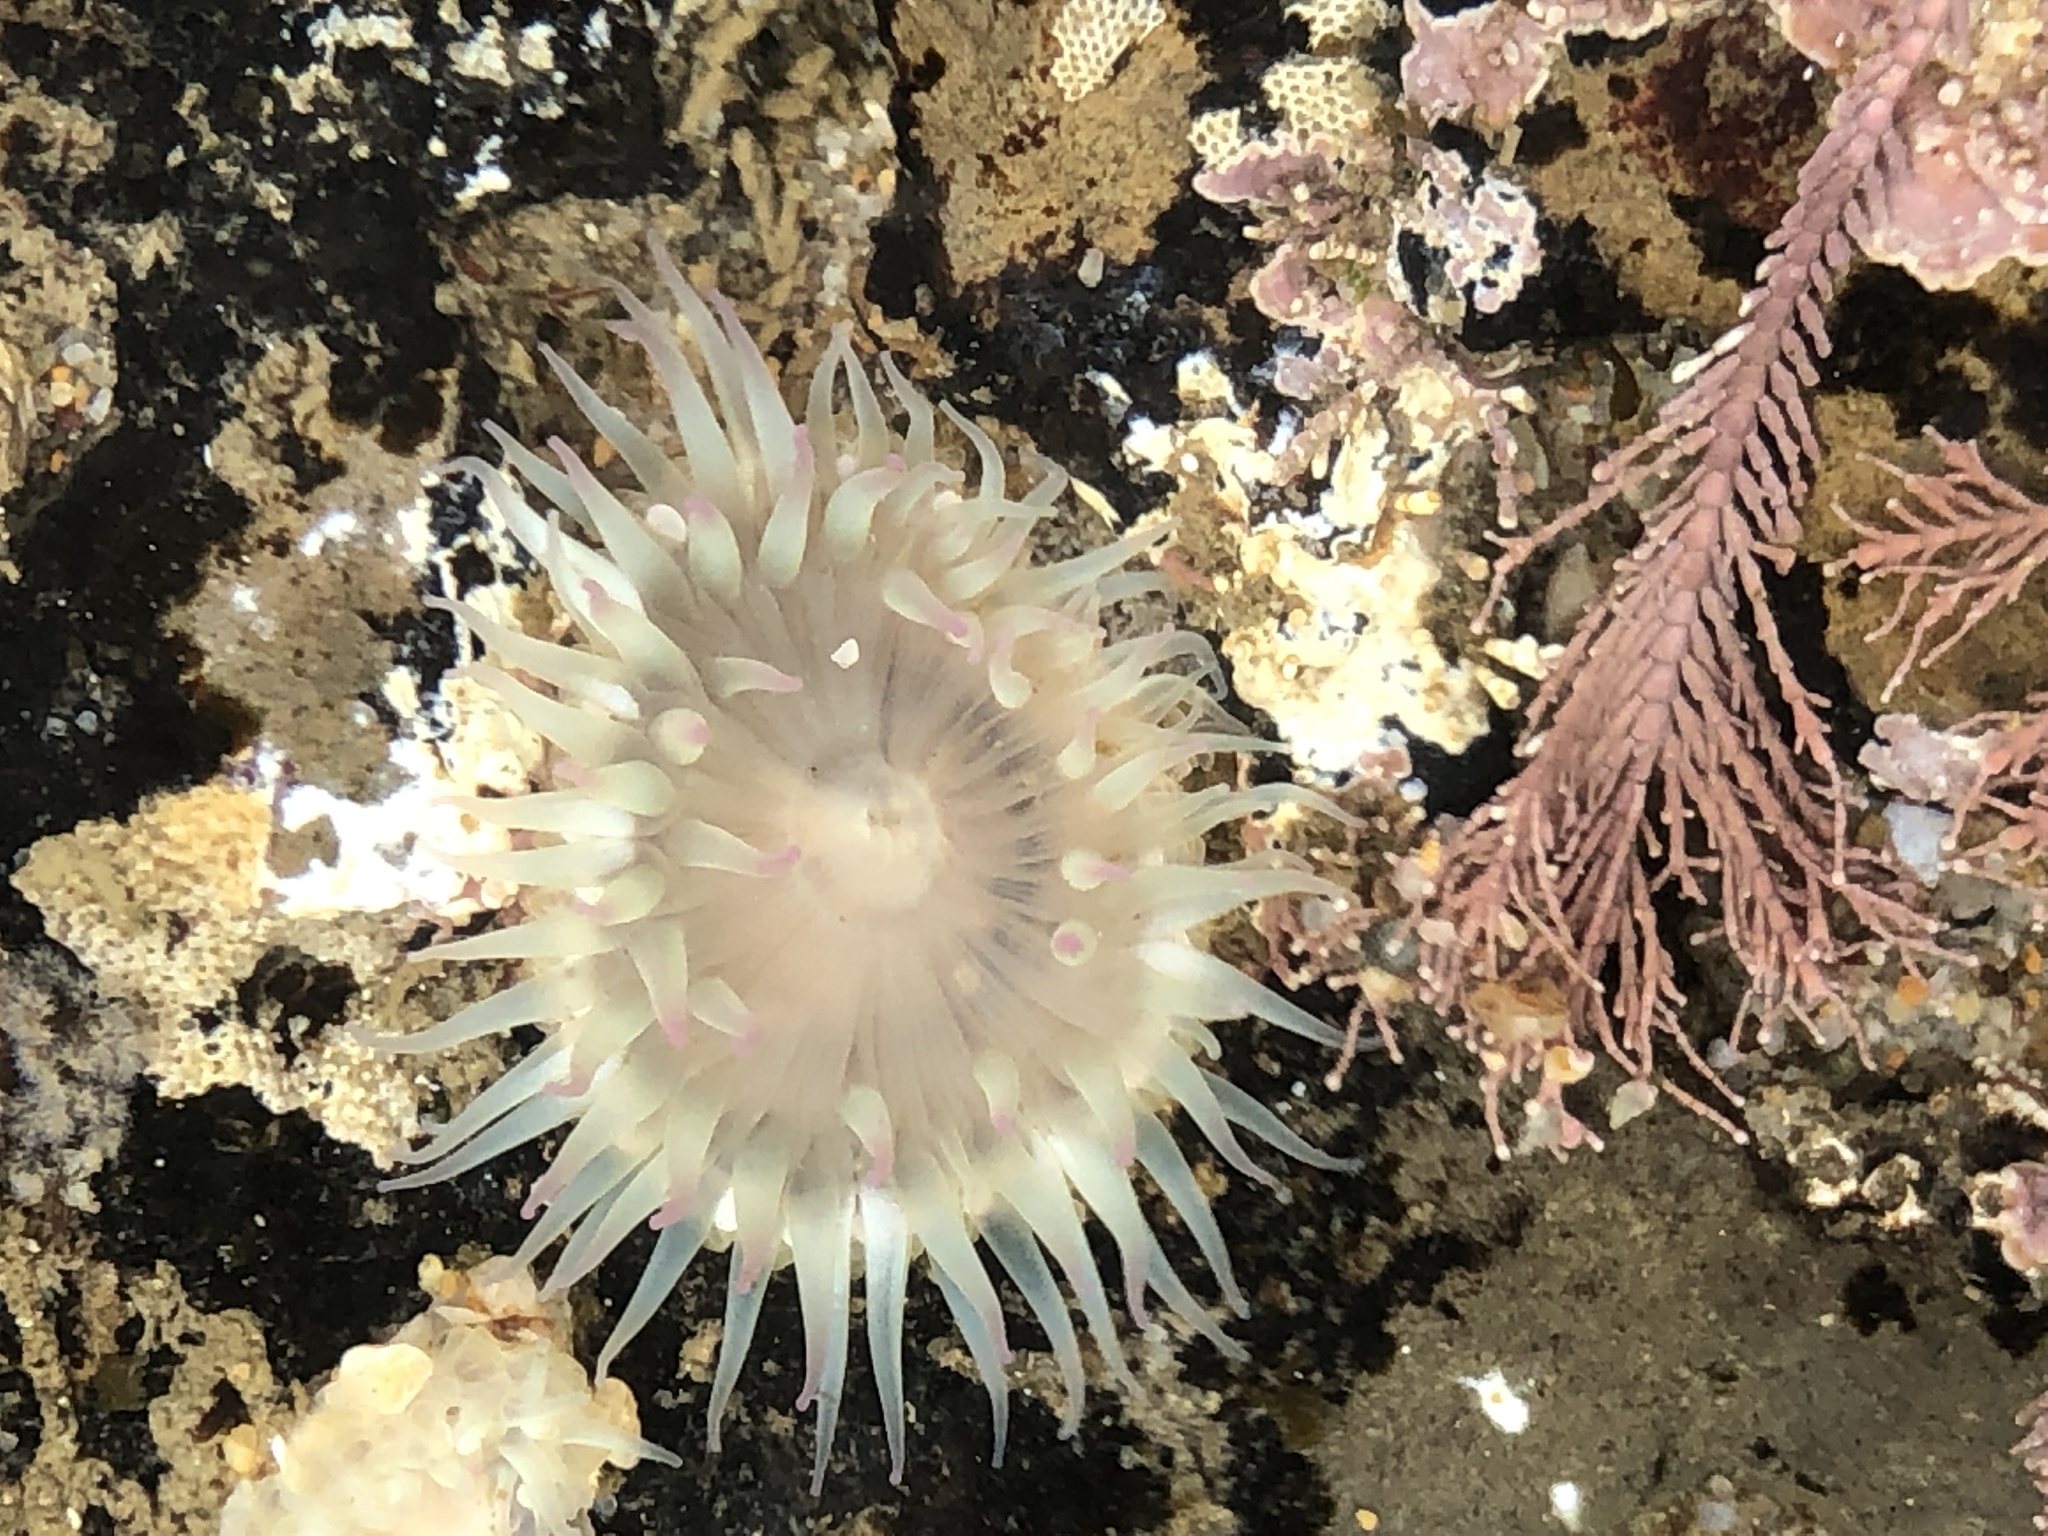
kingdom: Animalia
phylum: Cnidaria
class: Anthozoa
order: Actiniaria
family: Actiniidae
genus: Anthopleura
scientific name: Anthopleura elegantissima
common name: Clonal anemone
